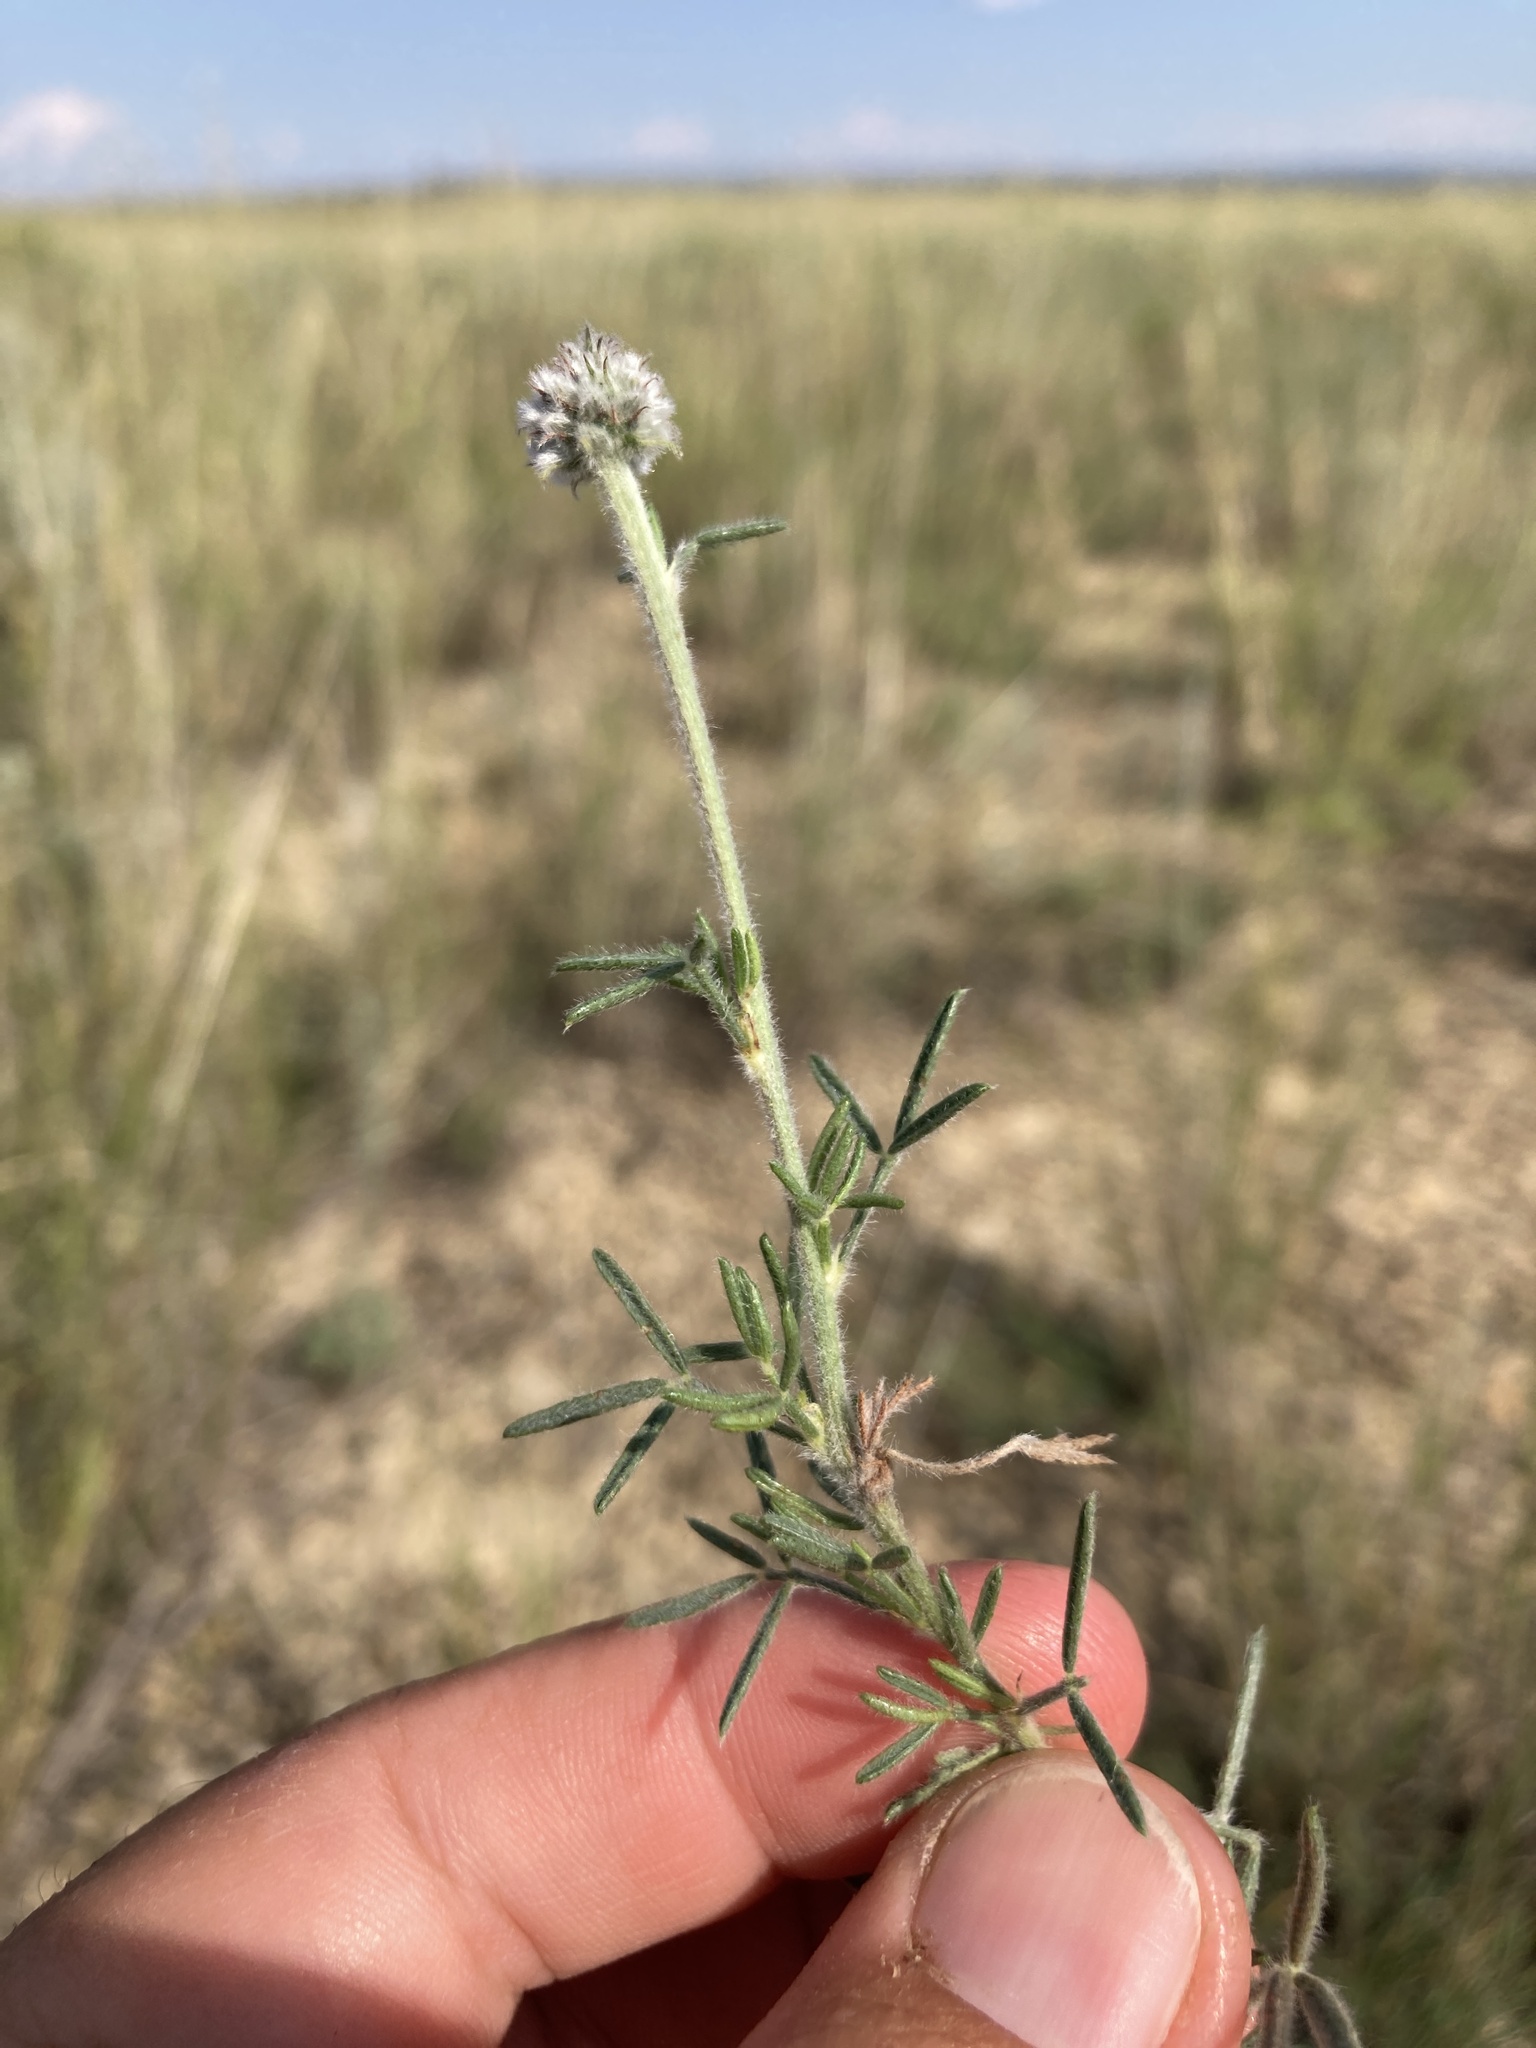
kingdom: Plantae
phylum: Tracheophyta
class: Magnoliopsida
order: Fabales
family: Fabaceae
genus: Dalea
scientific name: Dalea purpurea
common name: Purple prairie-clover
